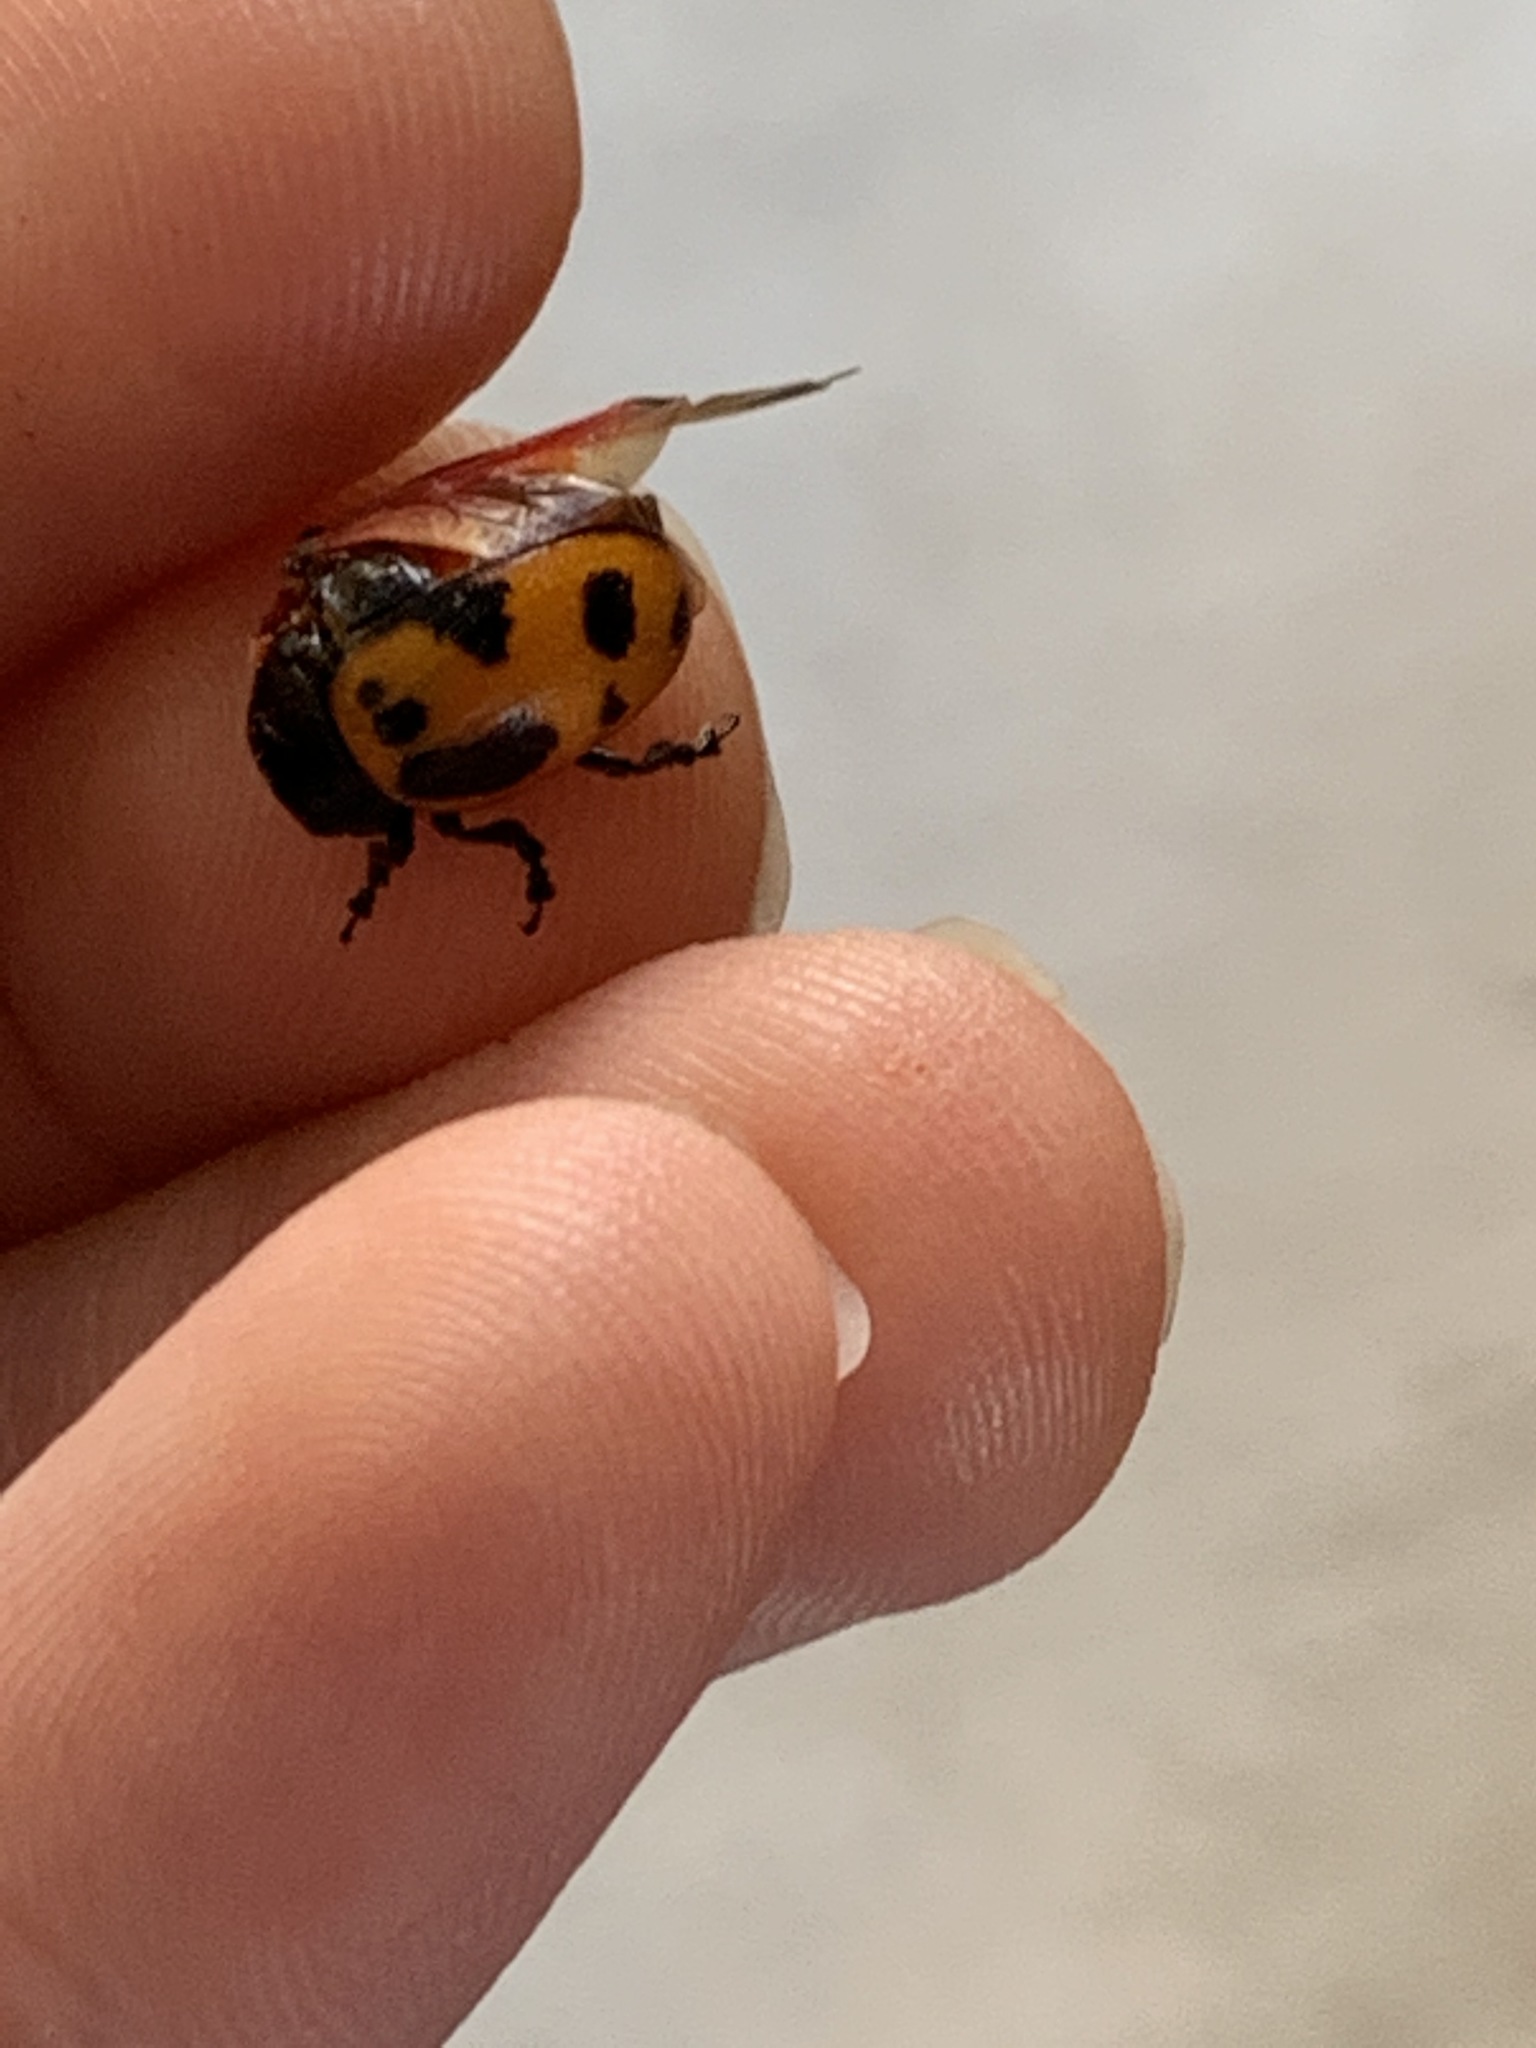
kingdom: Animalia
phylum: Arthropoda
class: Insecta
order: Coleoptera
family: Chrysomelidae
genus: Labidomera
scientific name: Labidomera clivicollis
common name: Swamp milkweed leaf beetle
